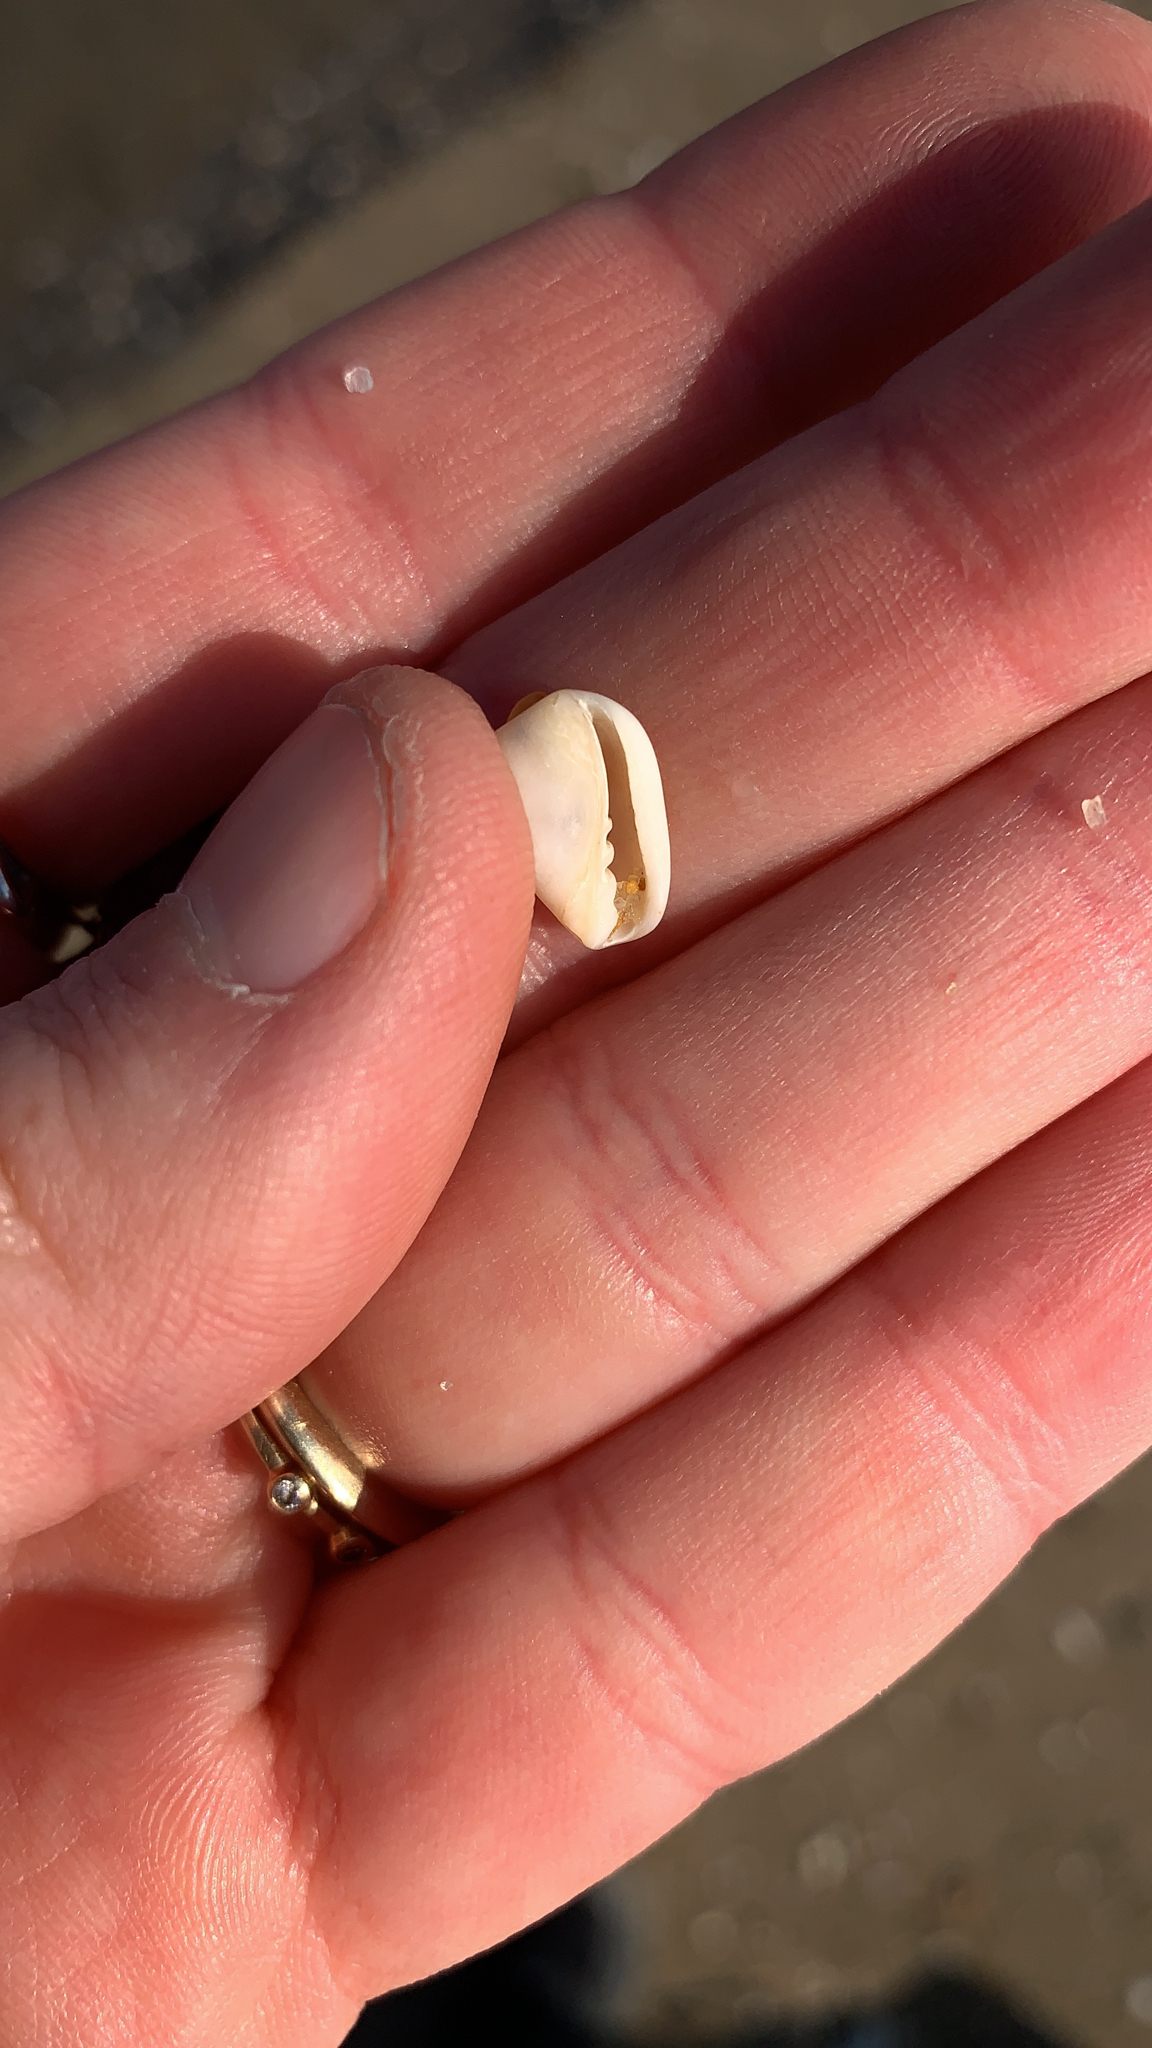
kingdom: Animalia
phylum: Mollusca
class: Gastropoda
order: Neogastropoda
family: Marginellidae
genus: Prunum
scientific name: Prunum
